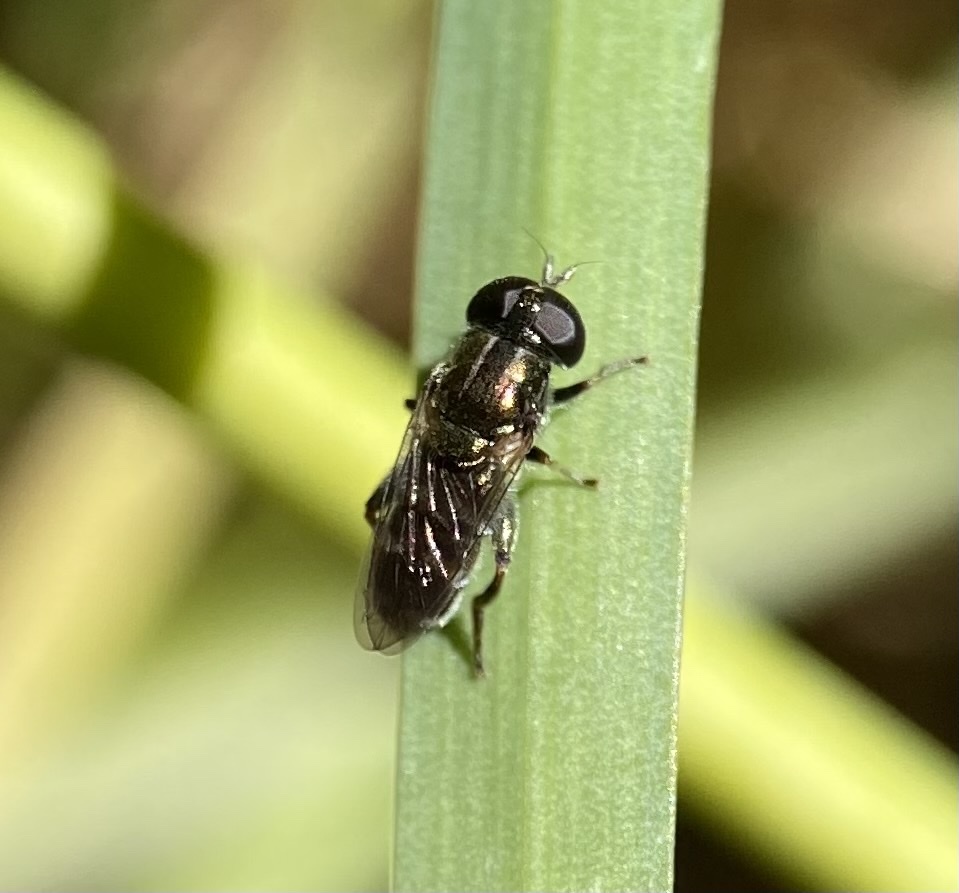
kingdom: Animalia
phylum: Arthropoda
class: Insecta
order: Diptera
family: Syrphidae
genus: Eumerus
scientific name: Eumerus
